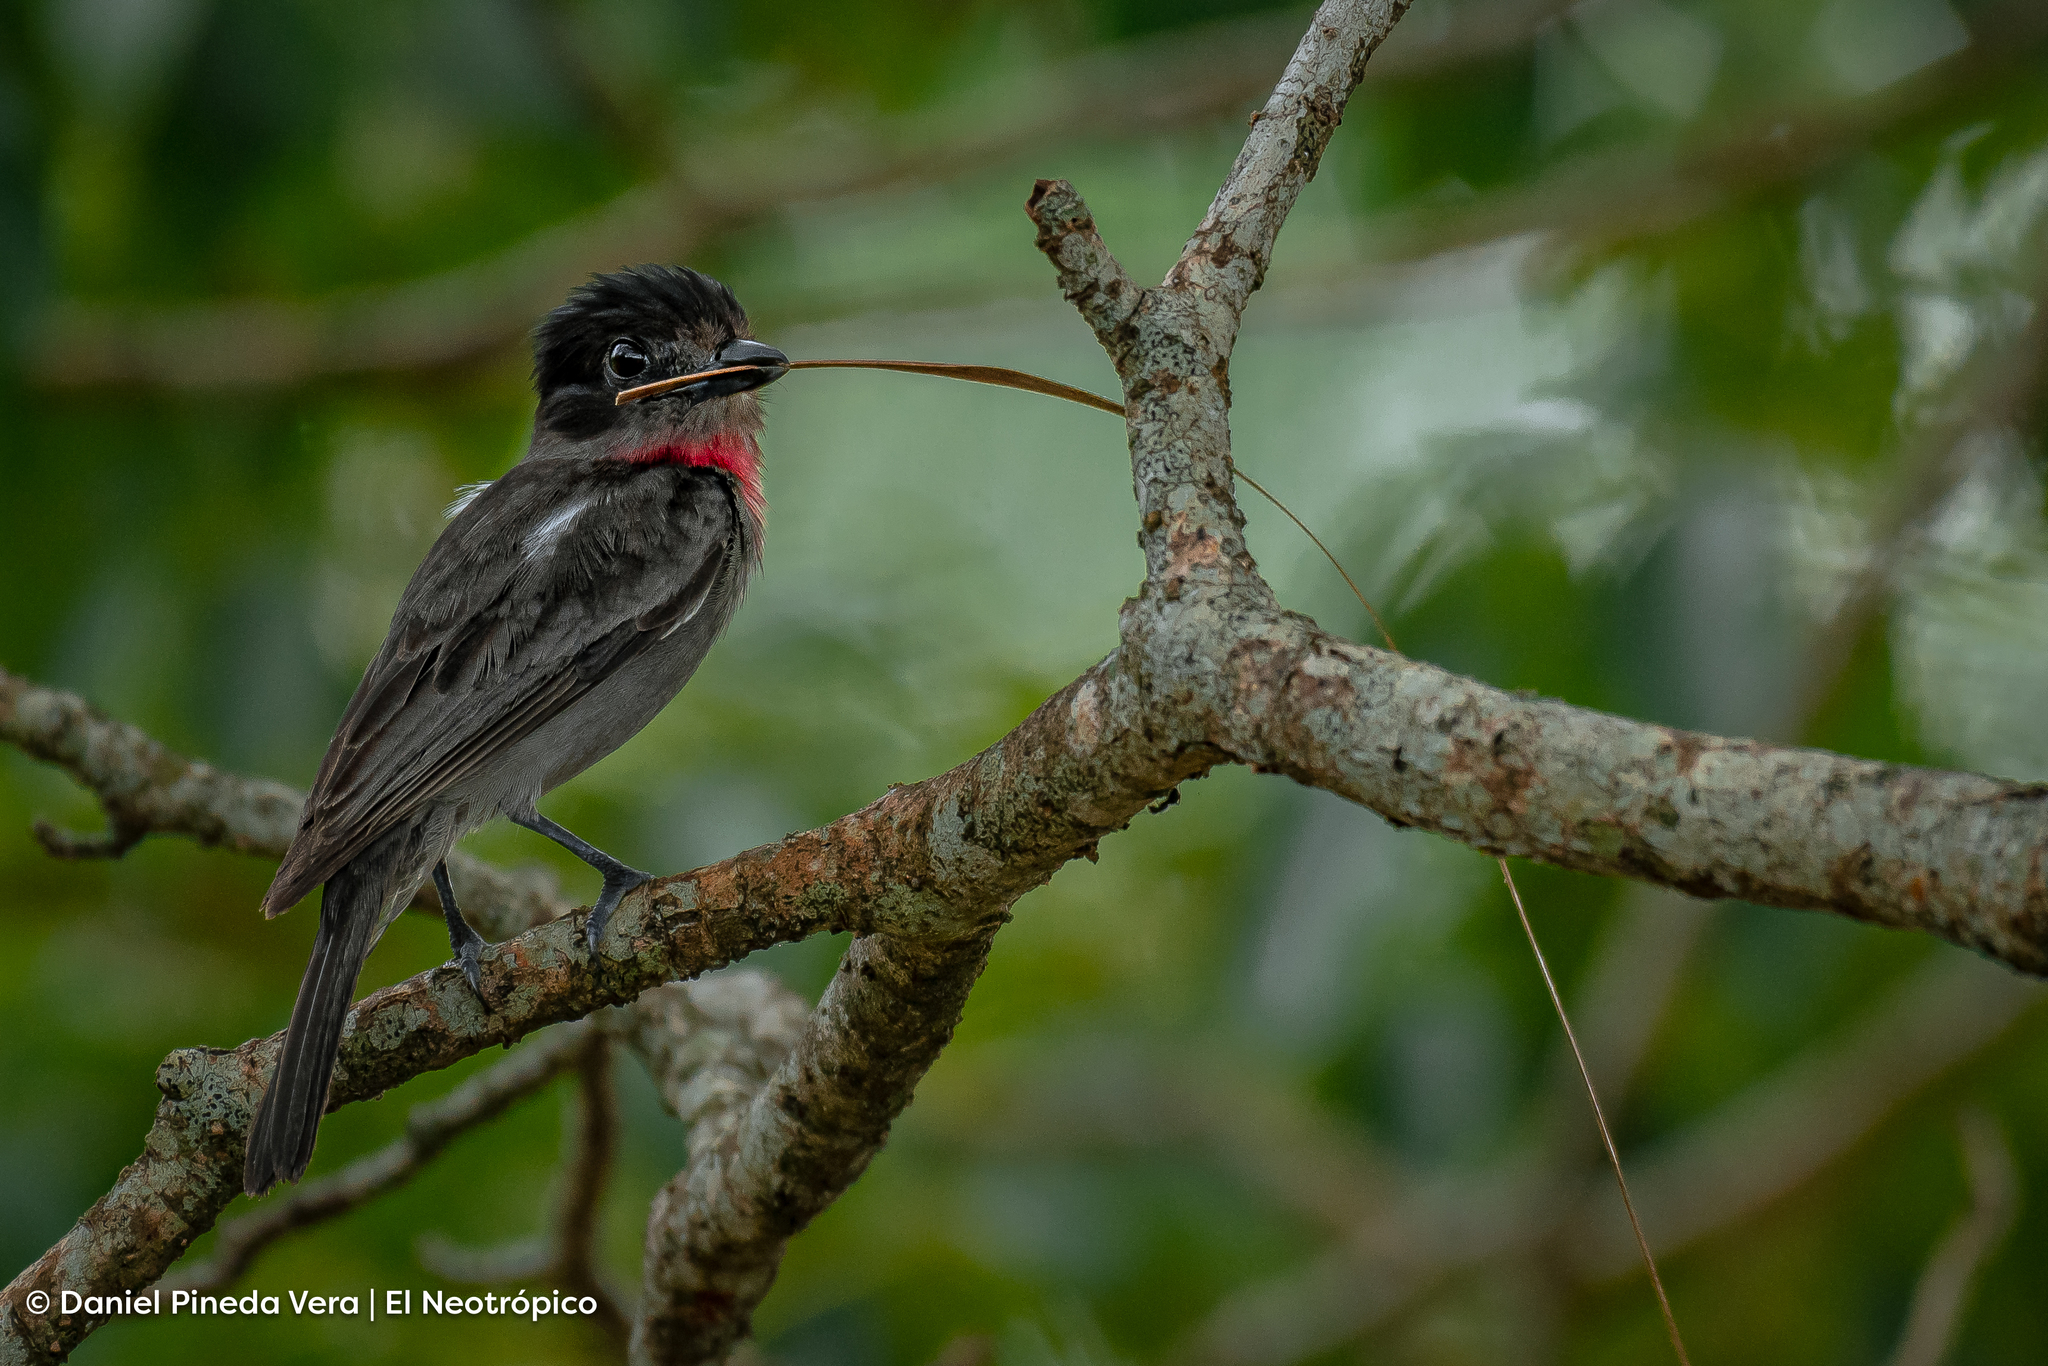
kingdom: Animalia
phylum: Chordata
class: Aves
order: Passeriformes
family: Cotingidae
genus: Pachyramphus
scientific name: Pachyramphus aglaiae
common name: Rose-throated becard
